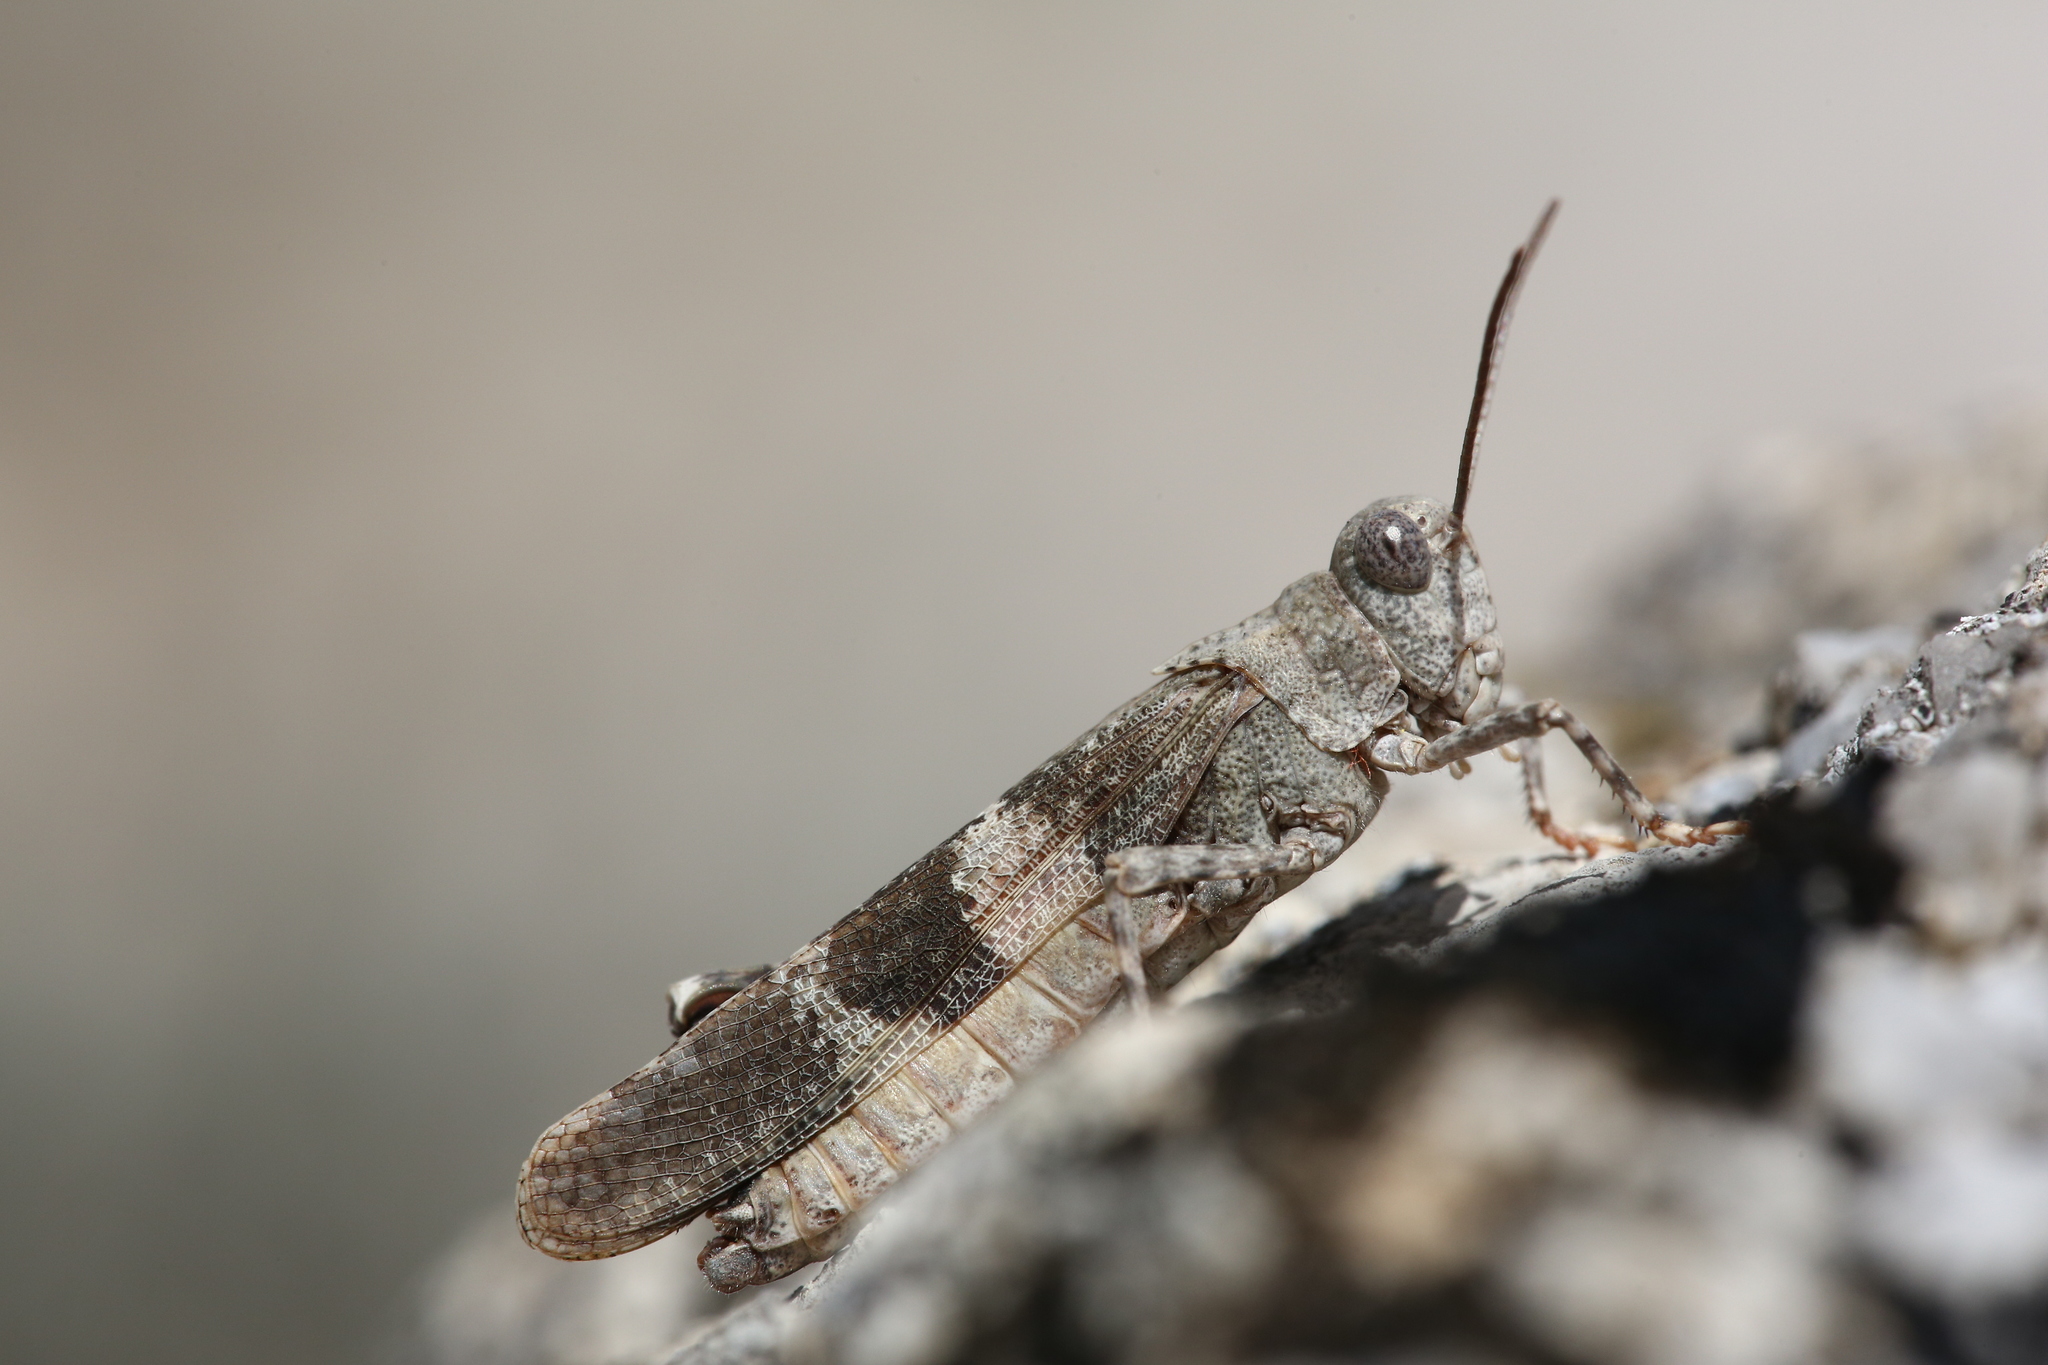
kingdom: Animalia
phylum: Arthropoda
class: Insecta
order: Orthoptera
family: Acrididae
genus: Oedipoda
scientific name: Oedipoda germanica
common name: Red band-winged grasshopper
